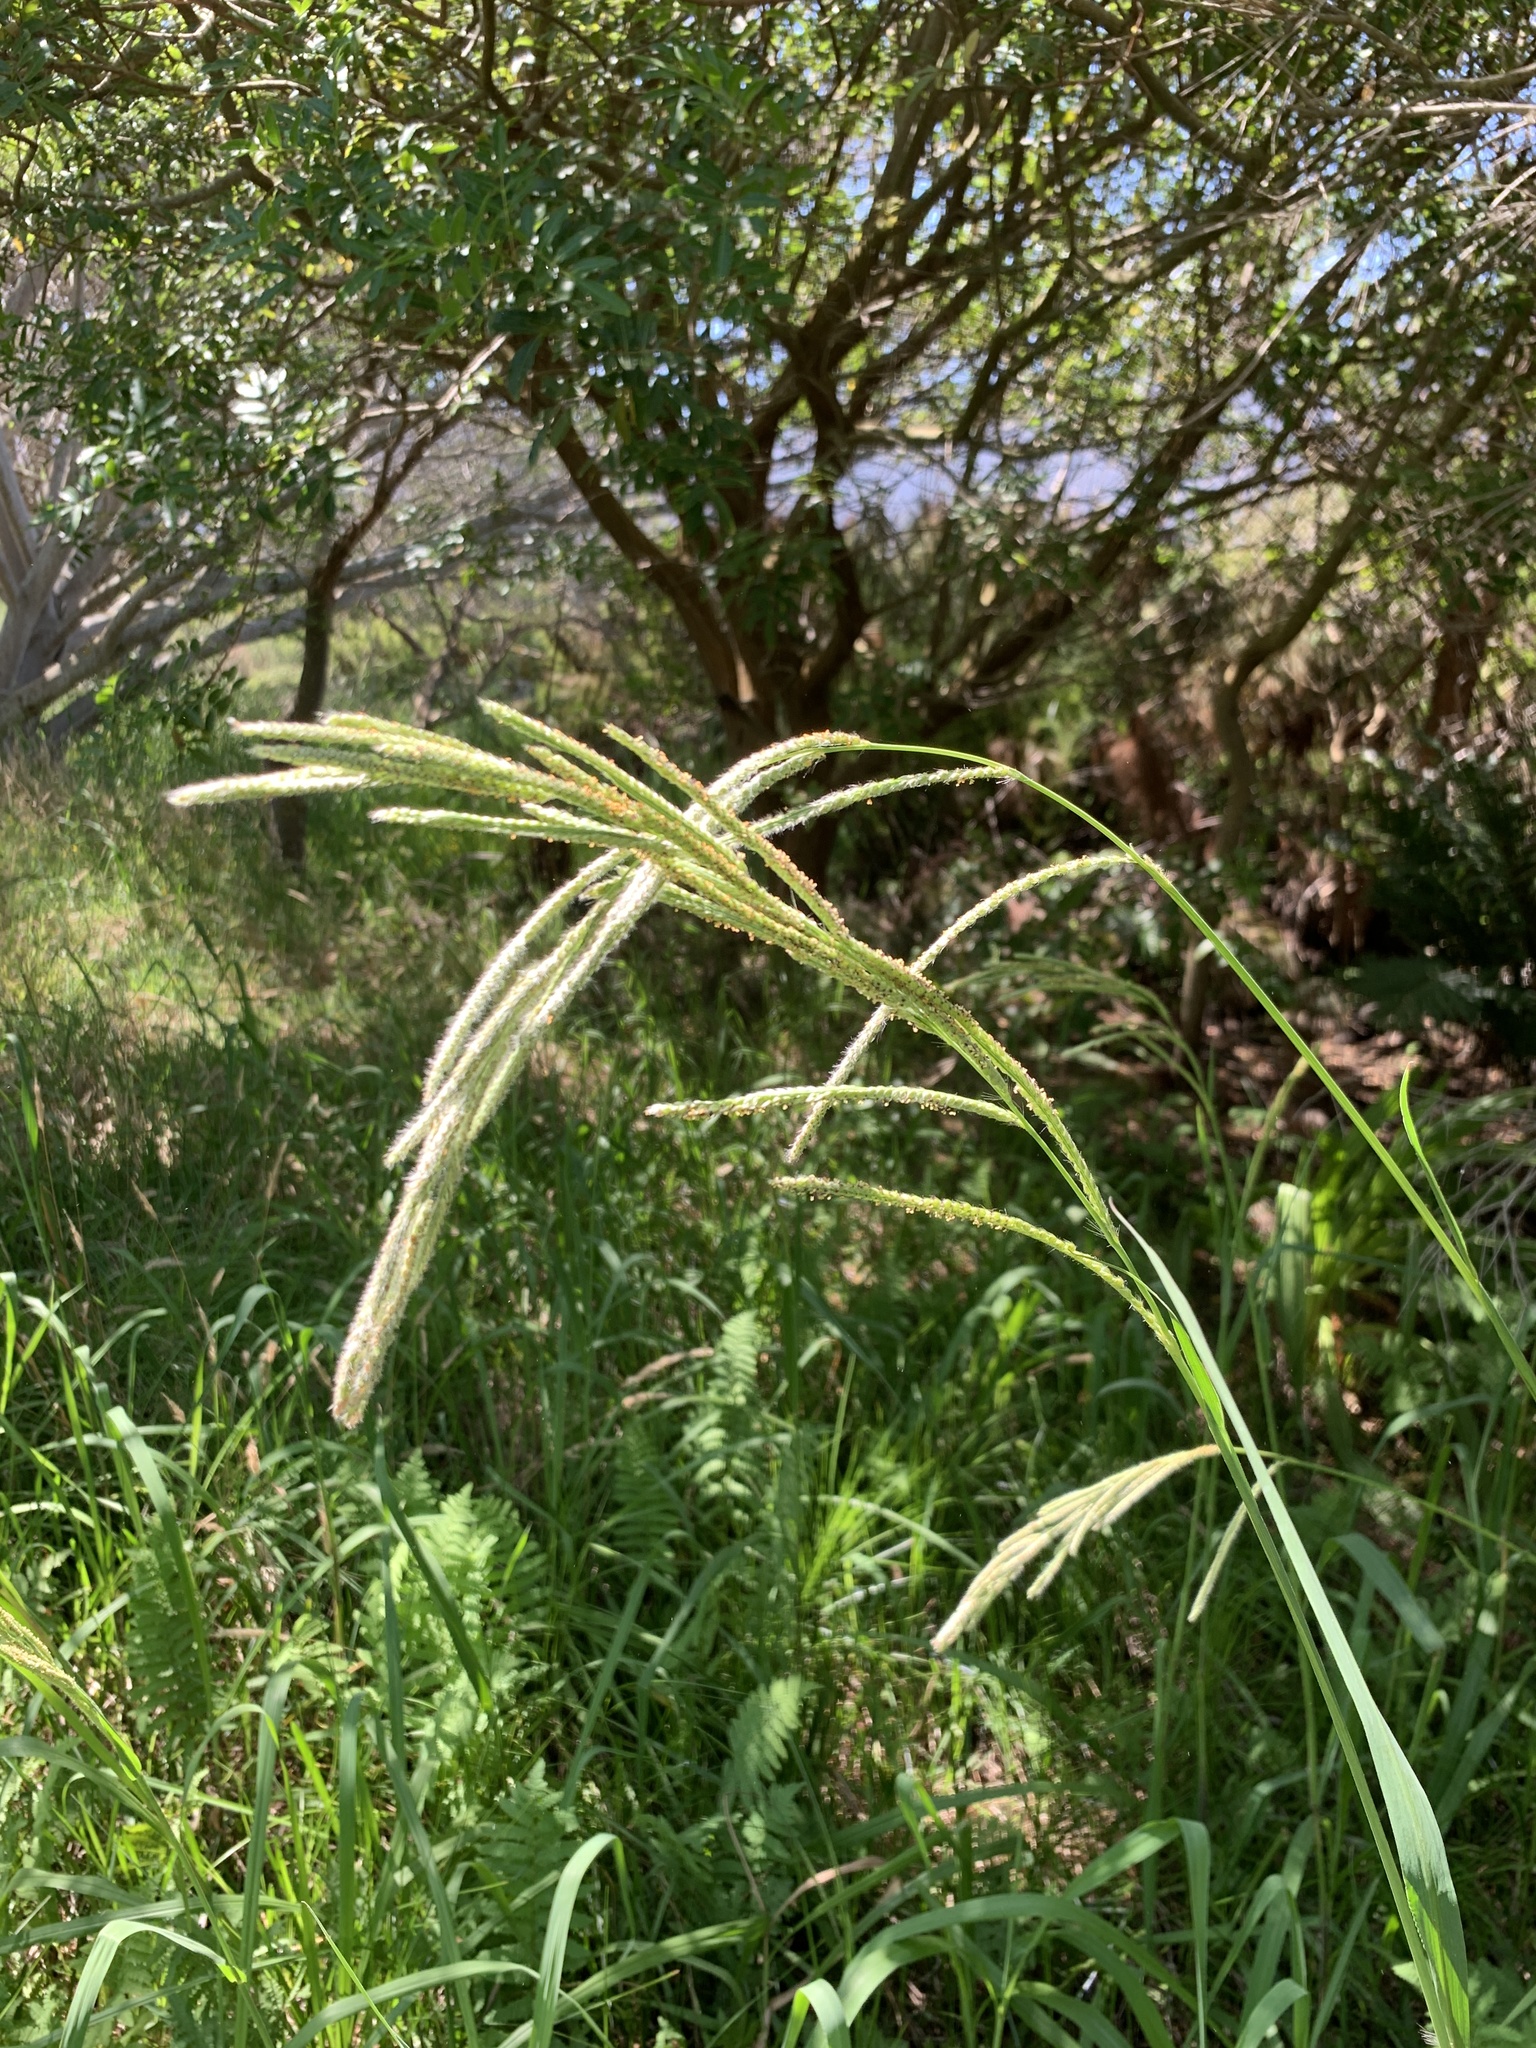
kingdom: Plantae
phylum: Tracheophyta
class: Liliopsida
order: Poales
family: Poaceae
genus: Paspalum
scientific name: Paspalum urvillei
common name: Vasey's grass
